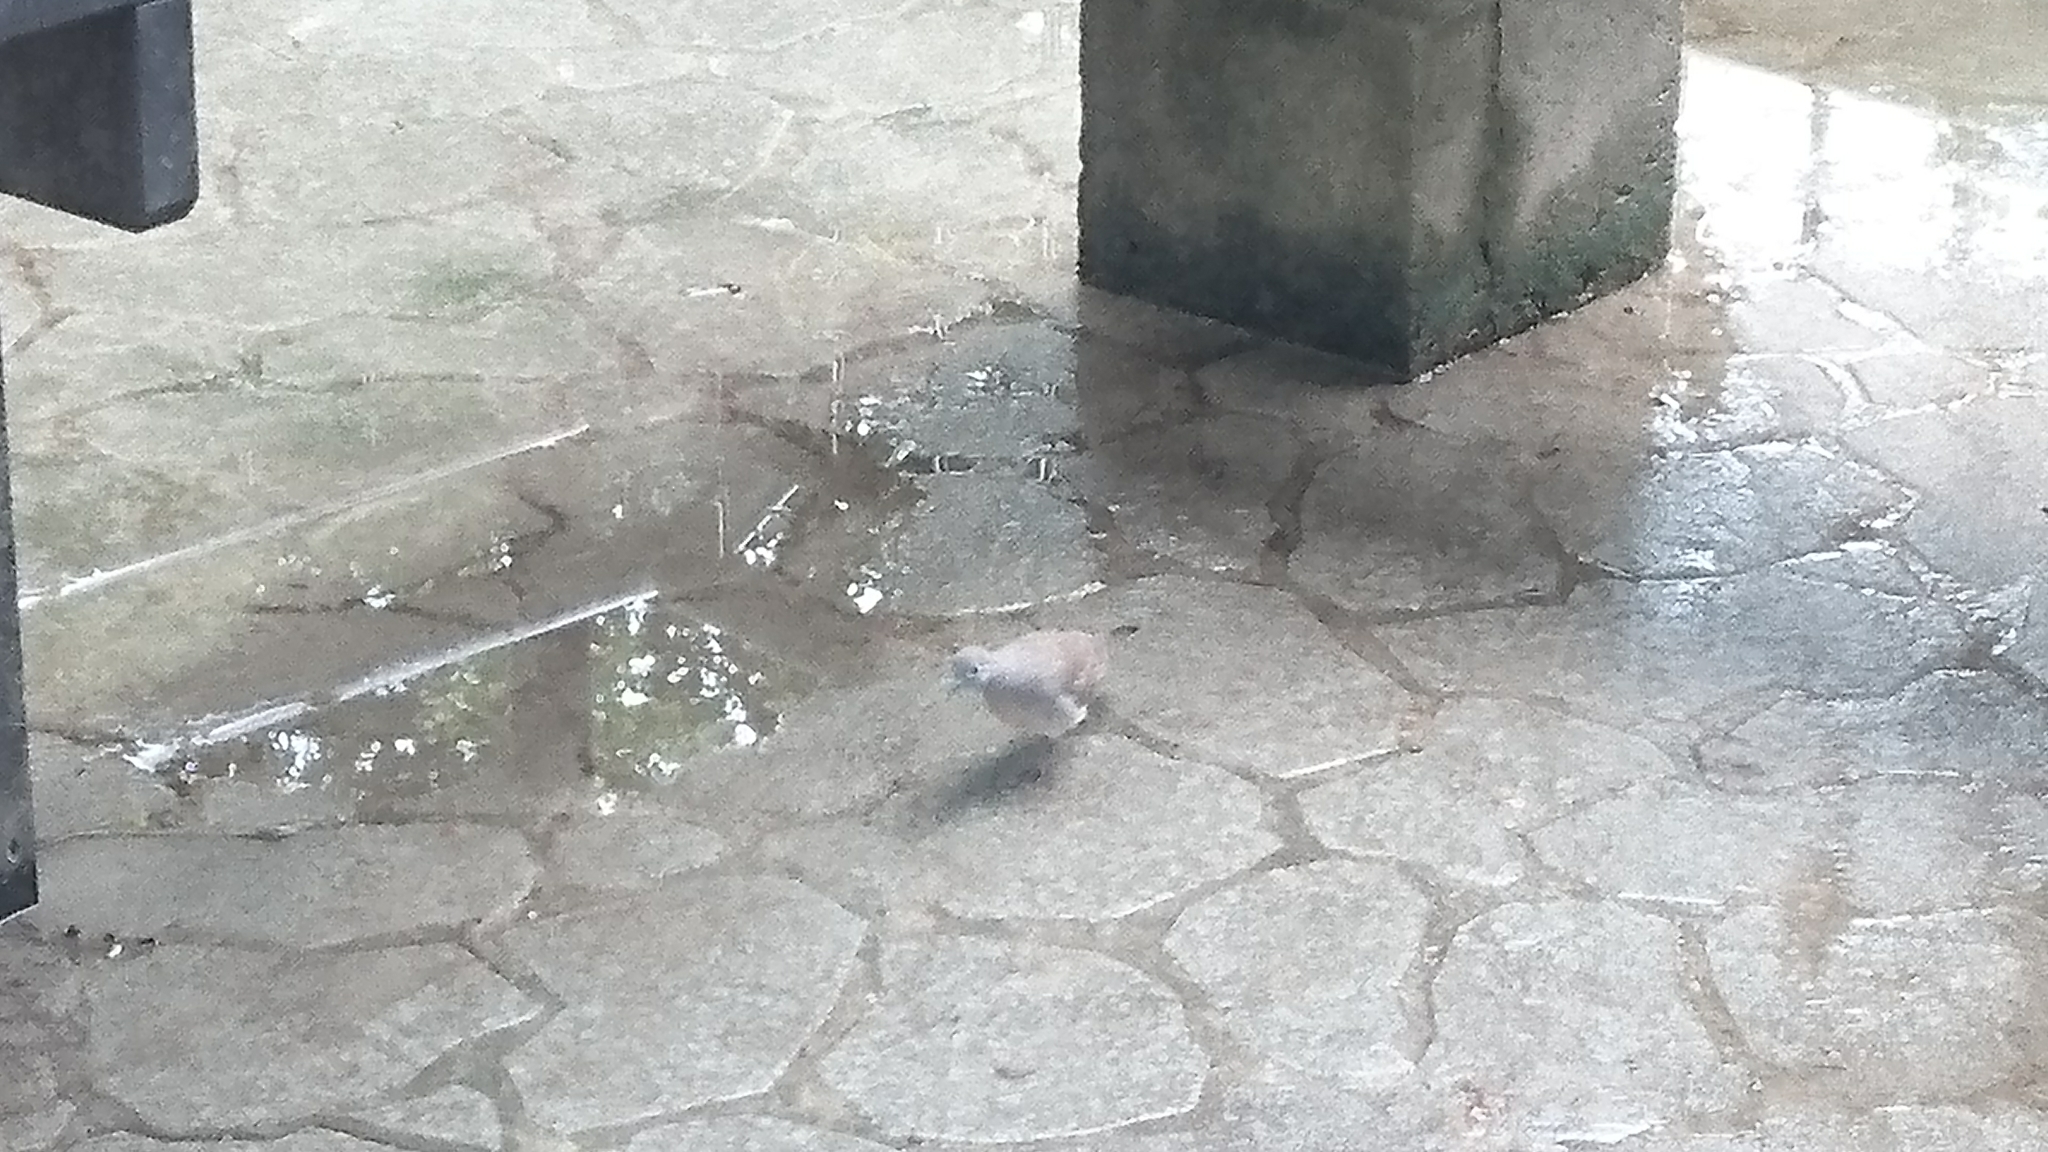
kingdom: Animalia
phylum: Chordata
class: Aves
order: Columbiformes
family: Columbidae
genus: Geopelia
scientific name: Geopelia striata
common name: Zebra dove
